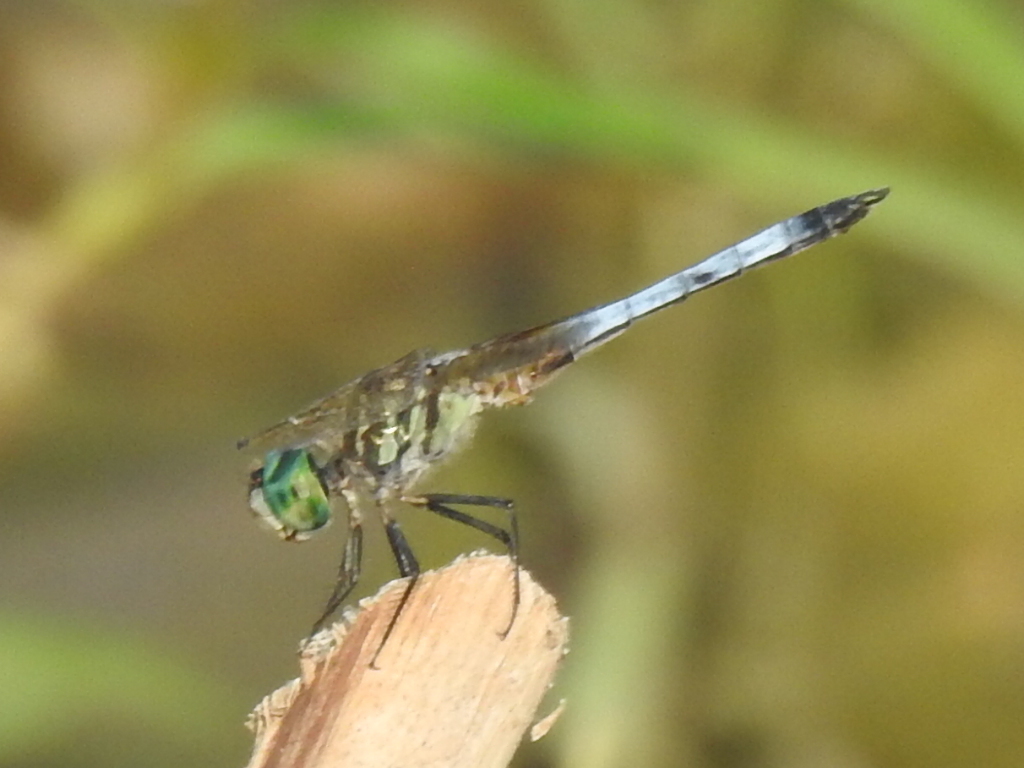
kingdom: Animalia
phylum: Arthropoda
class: Insecta
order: Odonata
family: Libellulidae
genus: Pachydiplax
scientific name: Pachydiplax longipennis
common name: Blue dasher
